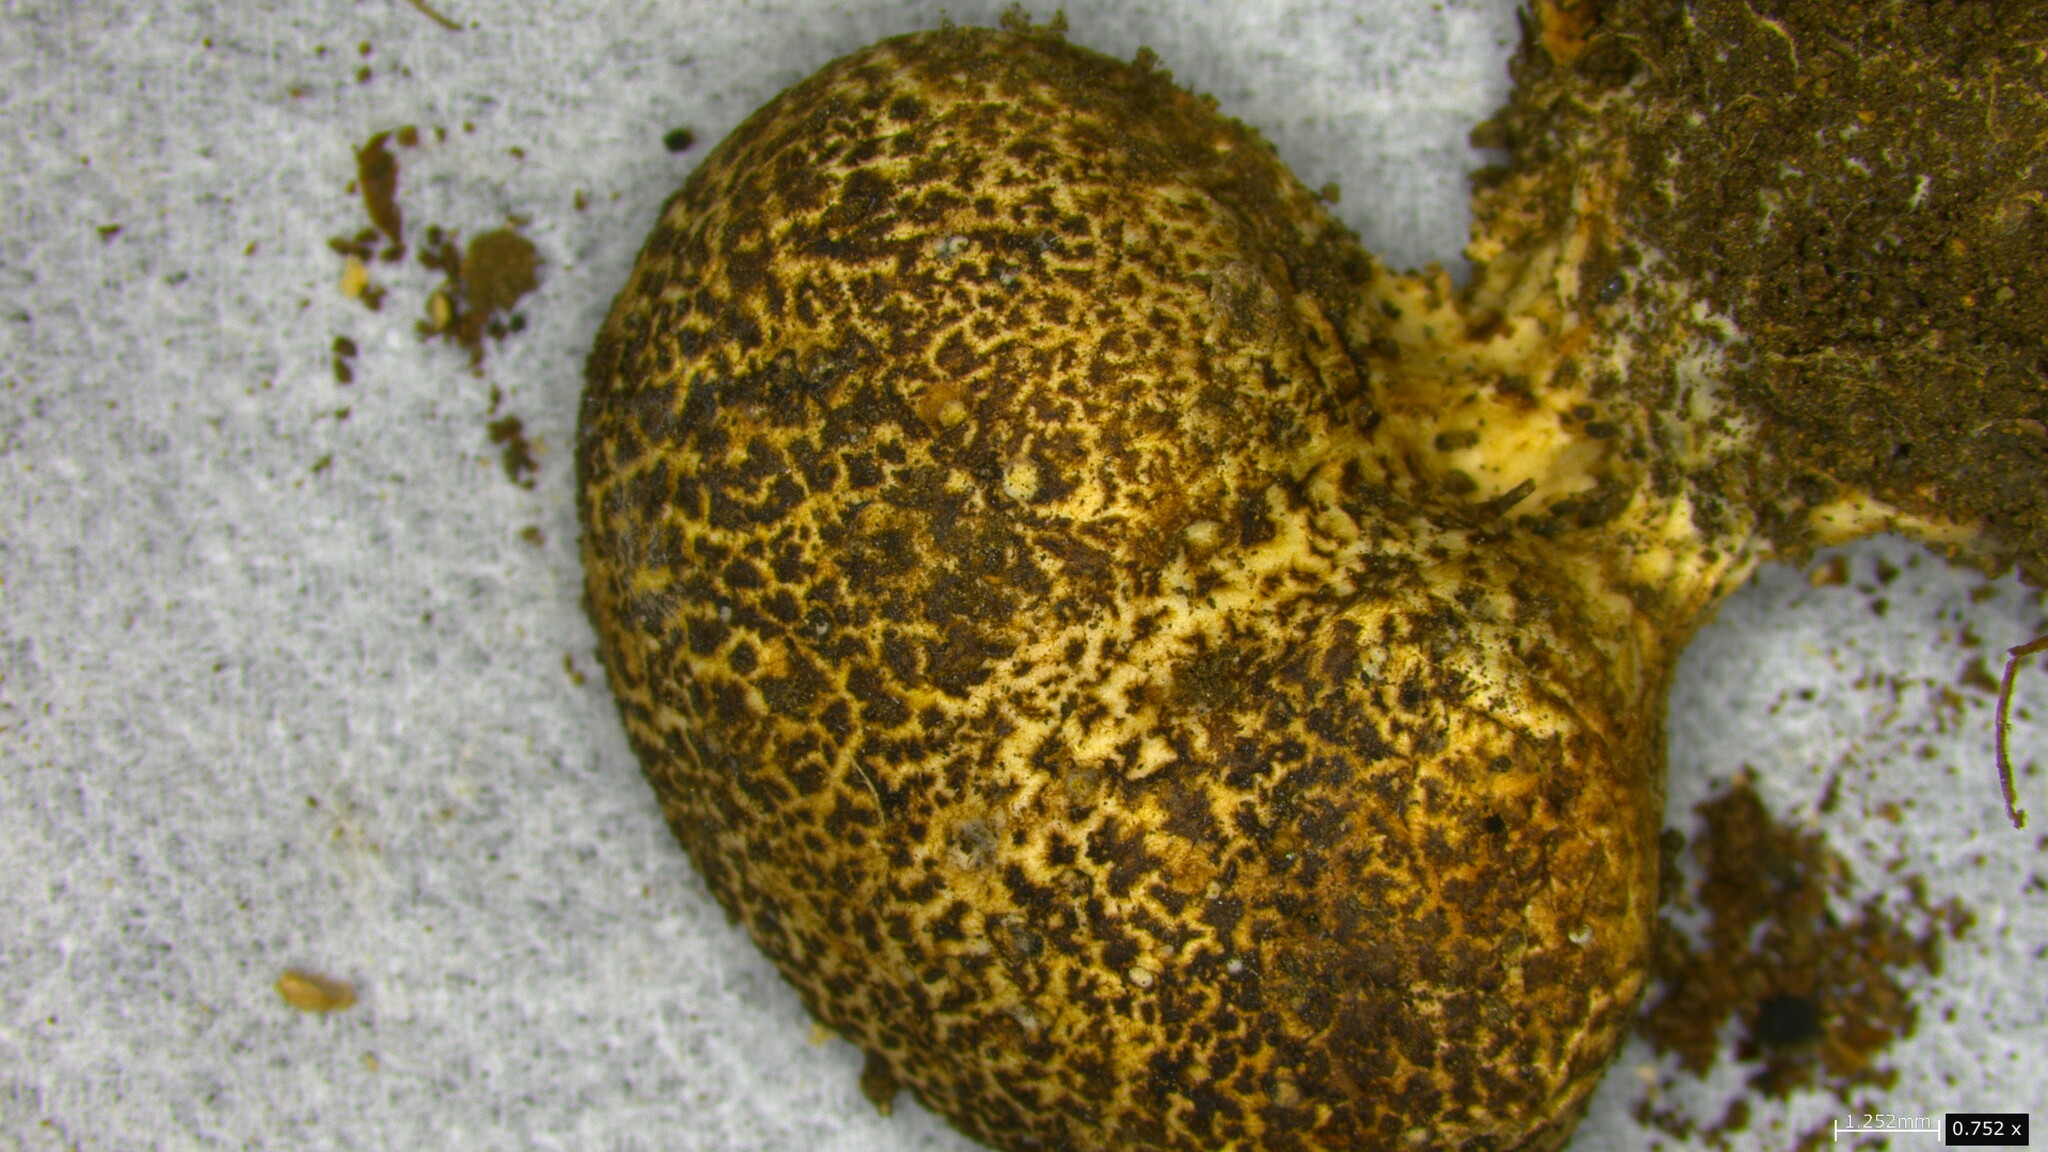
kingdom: Fungi
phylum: Basidiomycota
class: Agaricomycetes
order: Boletales
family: Sclerodermataceae
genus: Scleroderma
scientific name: Scleroderma verrucosum
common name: Scaly earthball
